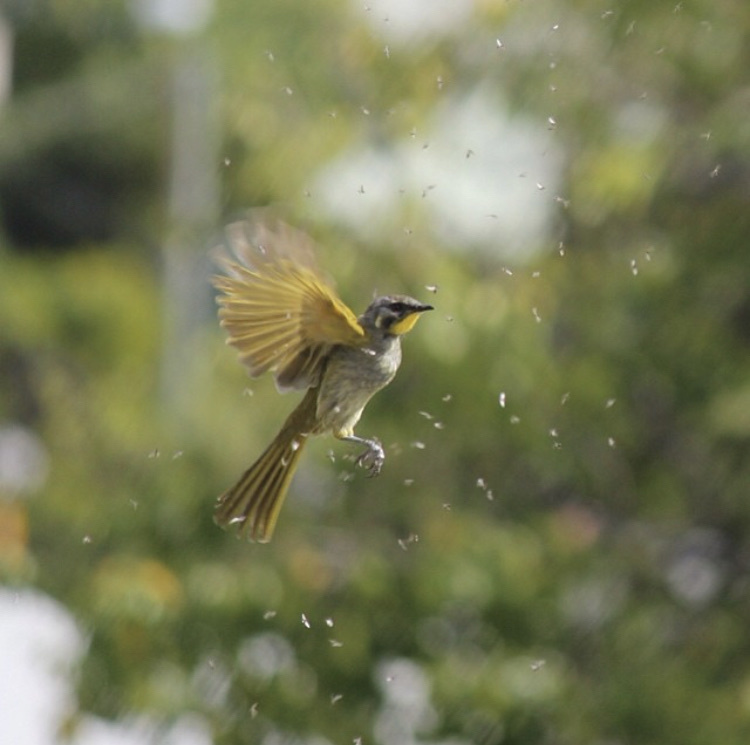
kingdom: Animalia
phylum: Chordata
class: Aves
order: Passeriformes
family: Meliphagidae
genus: Nesoptilotis
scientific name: Nesoptilotis flavicollis
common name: Yellow-throated honeyeater
